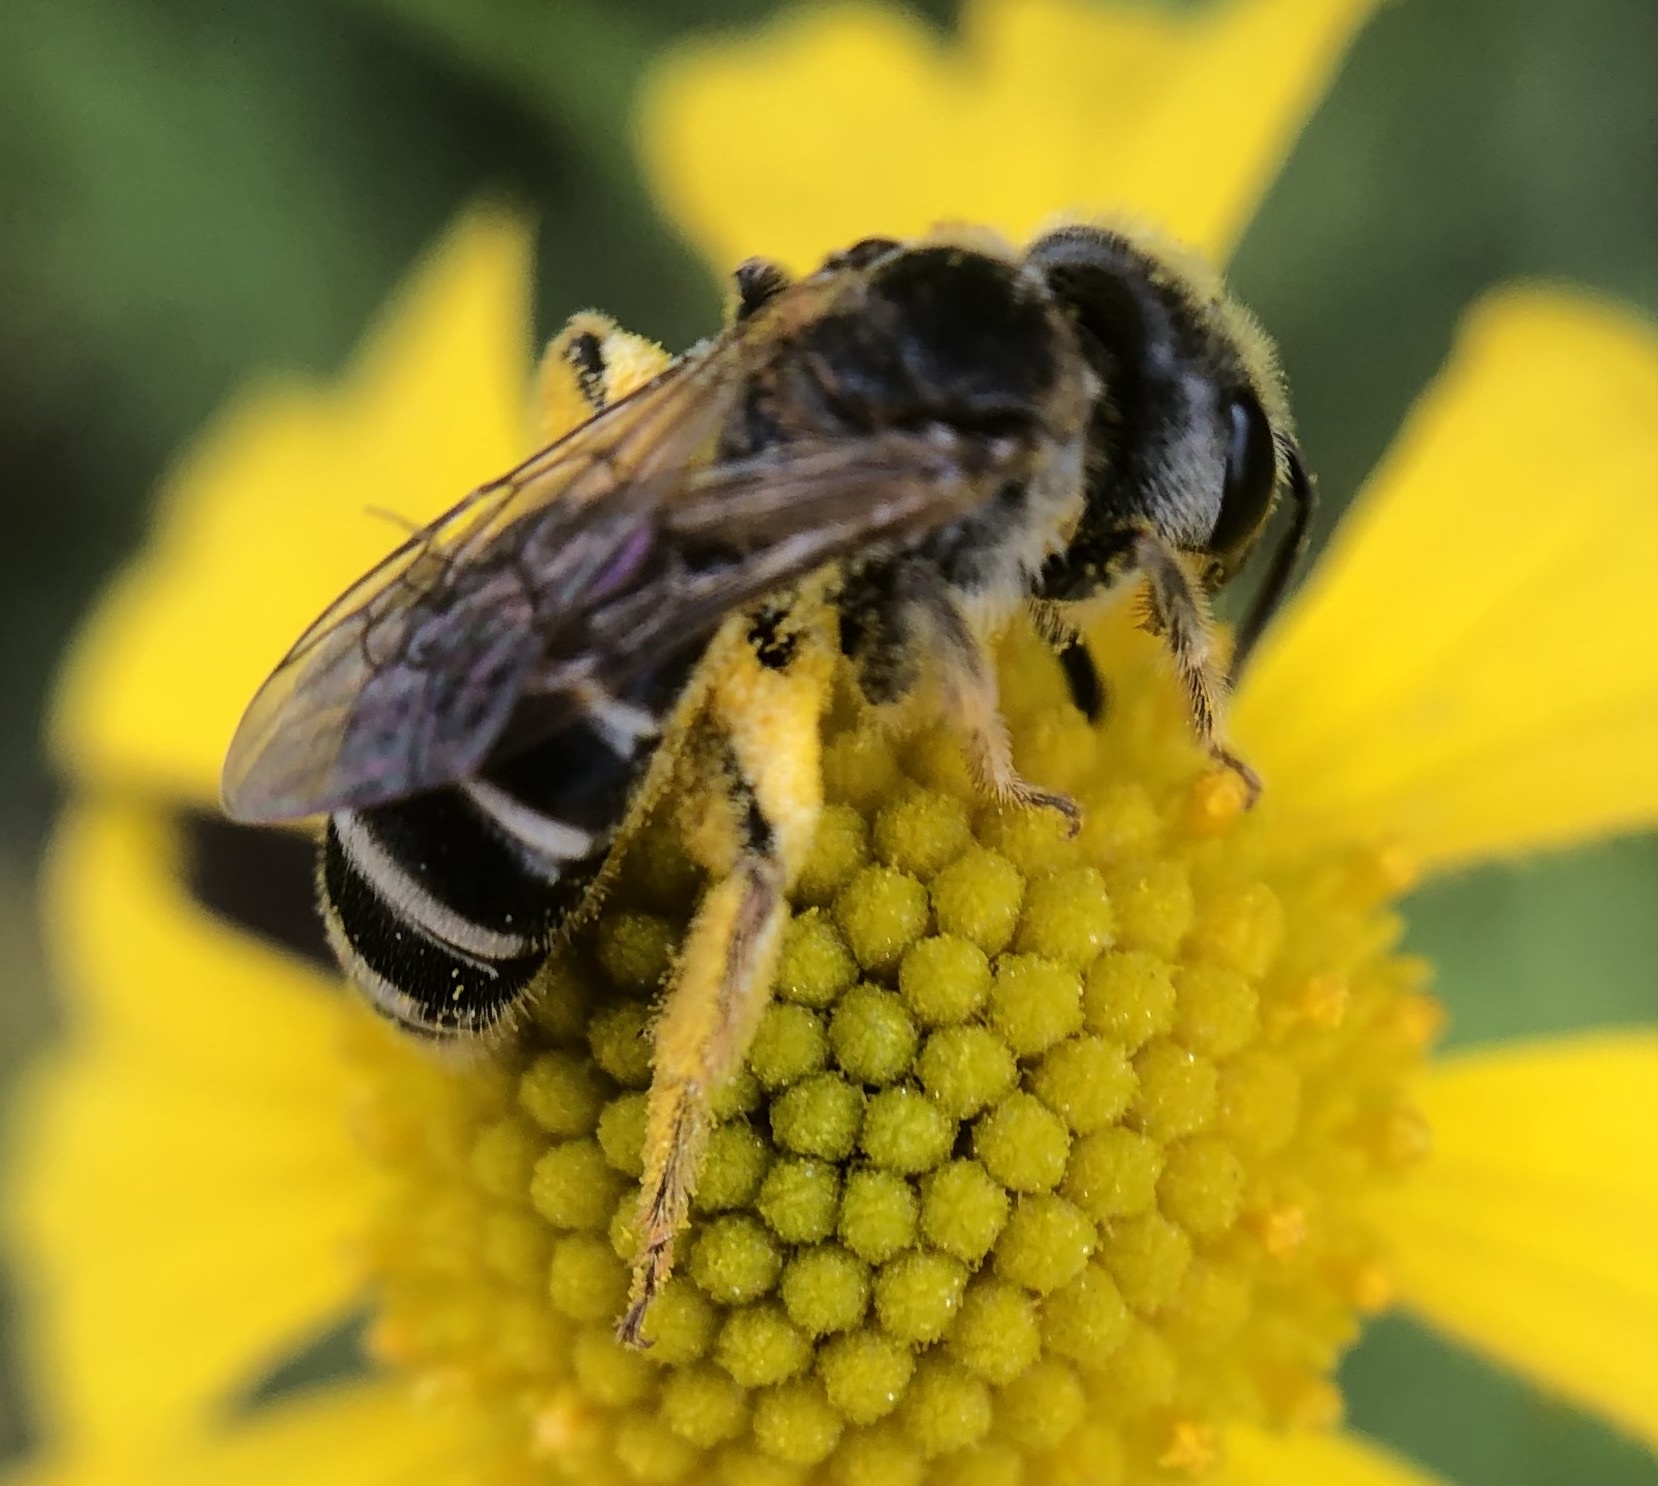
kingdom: Animalia
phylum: Arthropoda
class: Insecta
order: Hymenoptera
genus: Odontalictus
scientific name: Odontalictus
